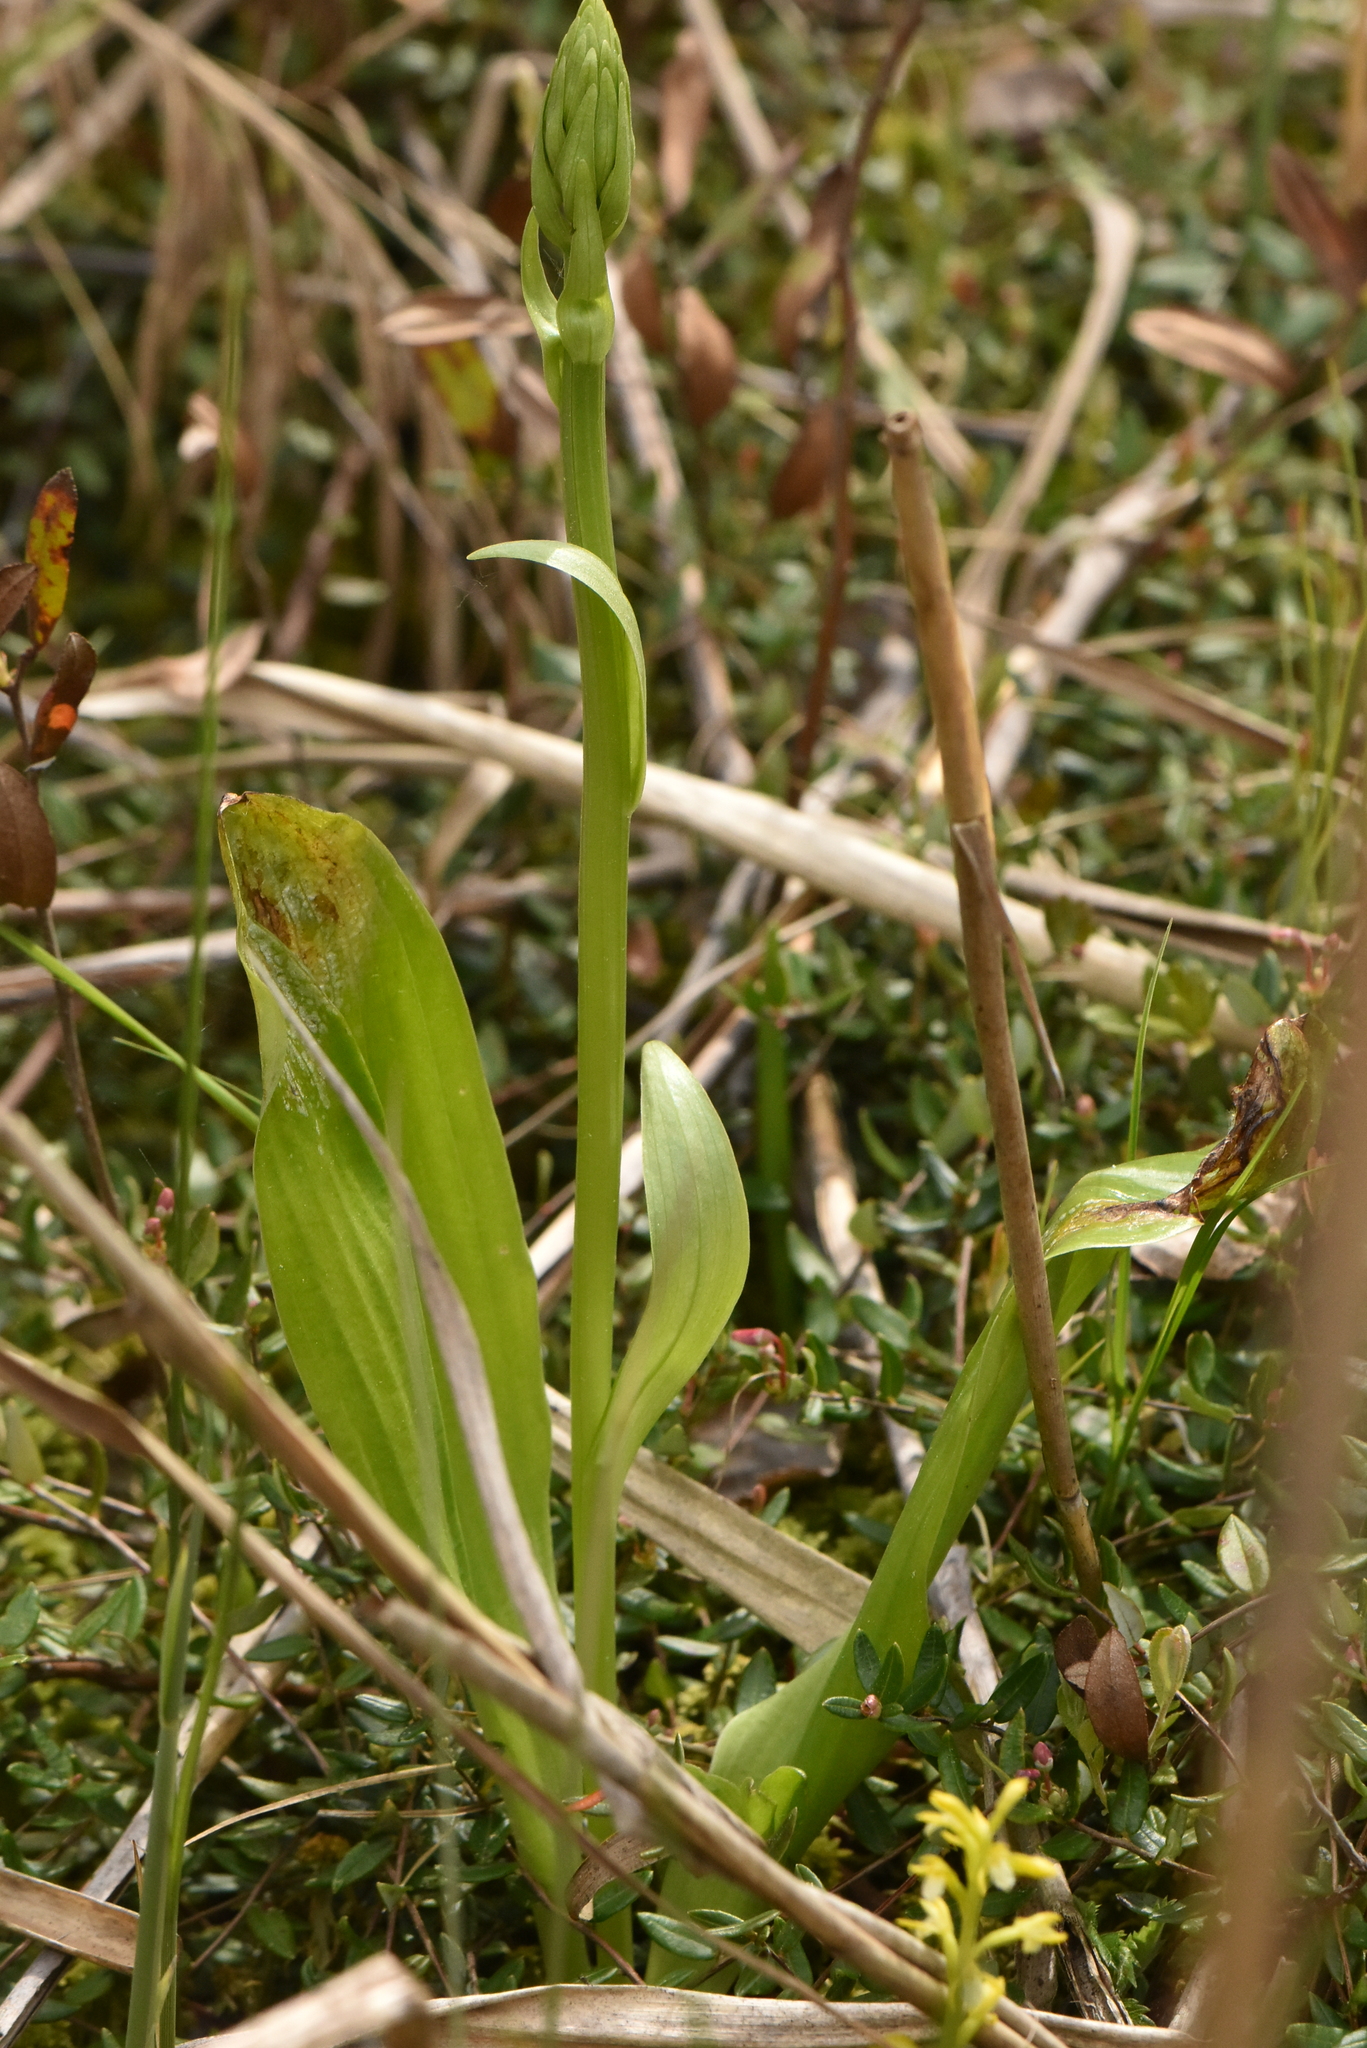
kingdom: Plantae
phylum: Tracheophyta
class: Liliopsida
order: Asparagales
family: Orchidaceae
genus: Platanthera
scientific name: Platanthera bifolia
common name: Lesser butterfly-orchid
